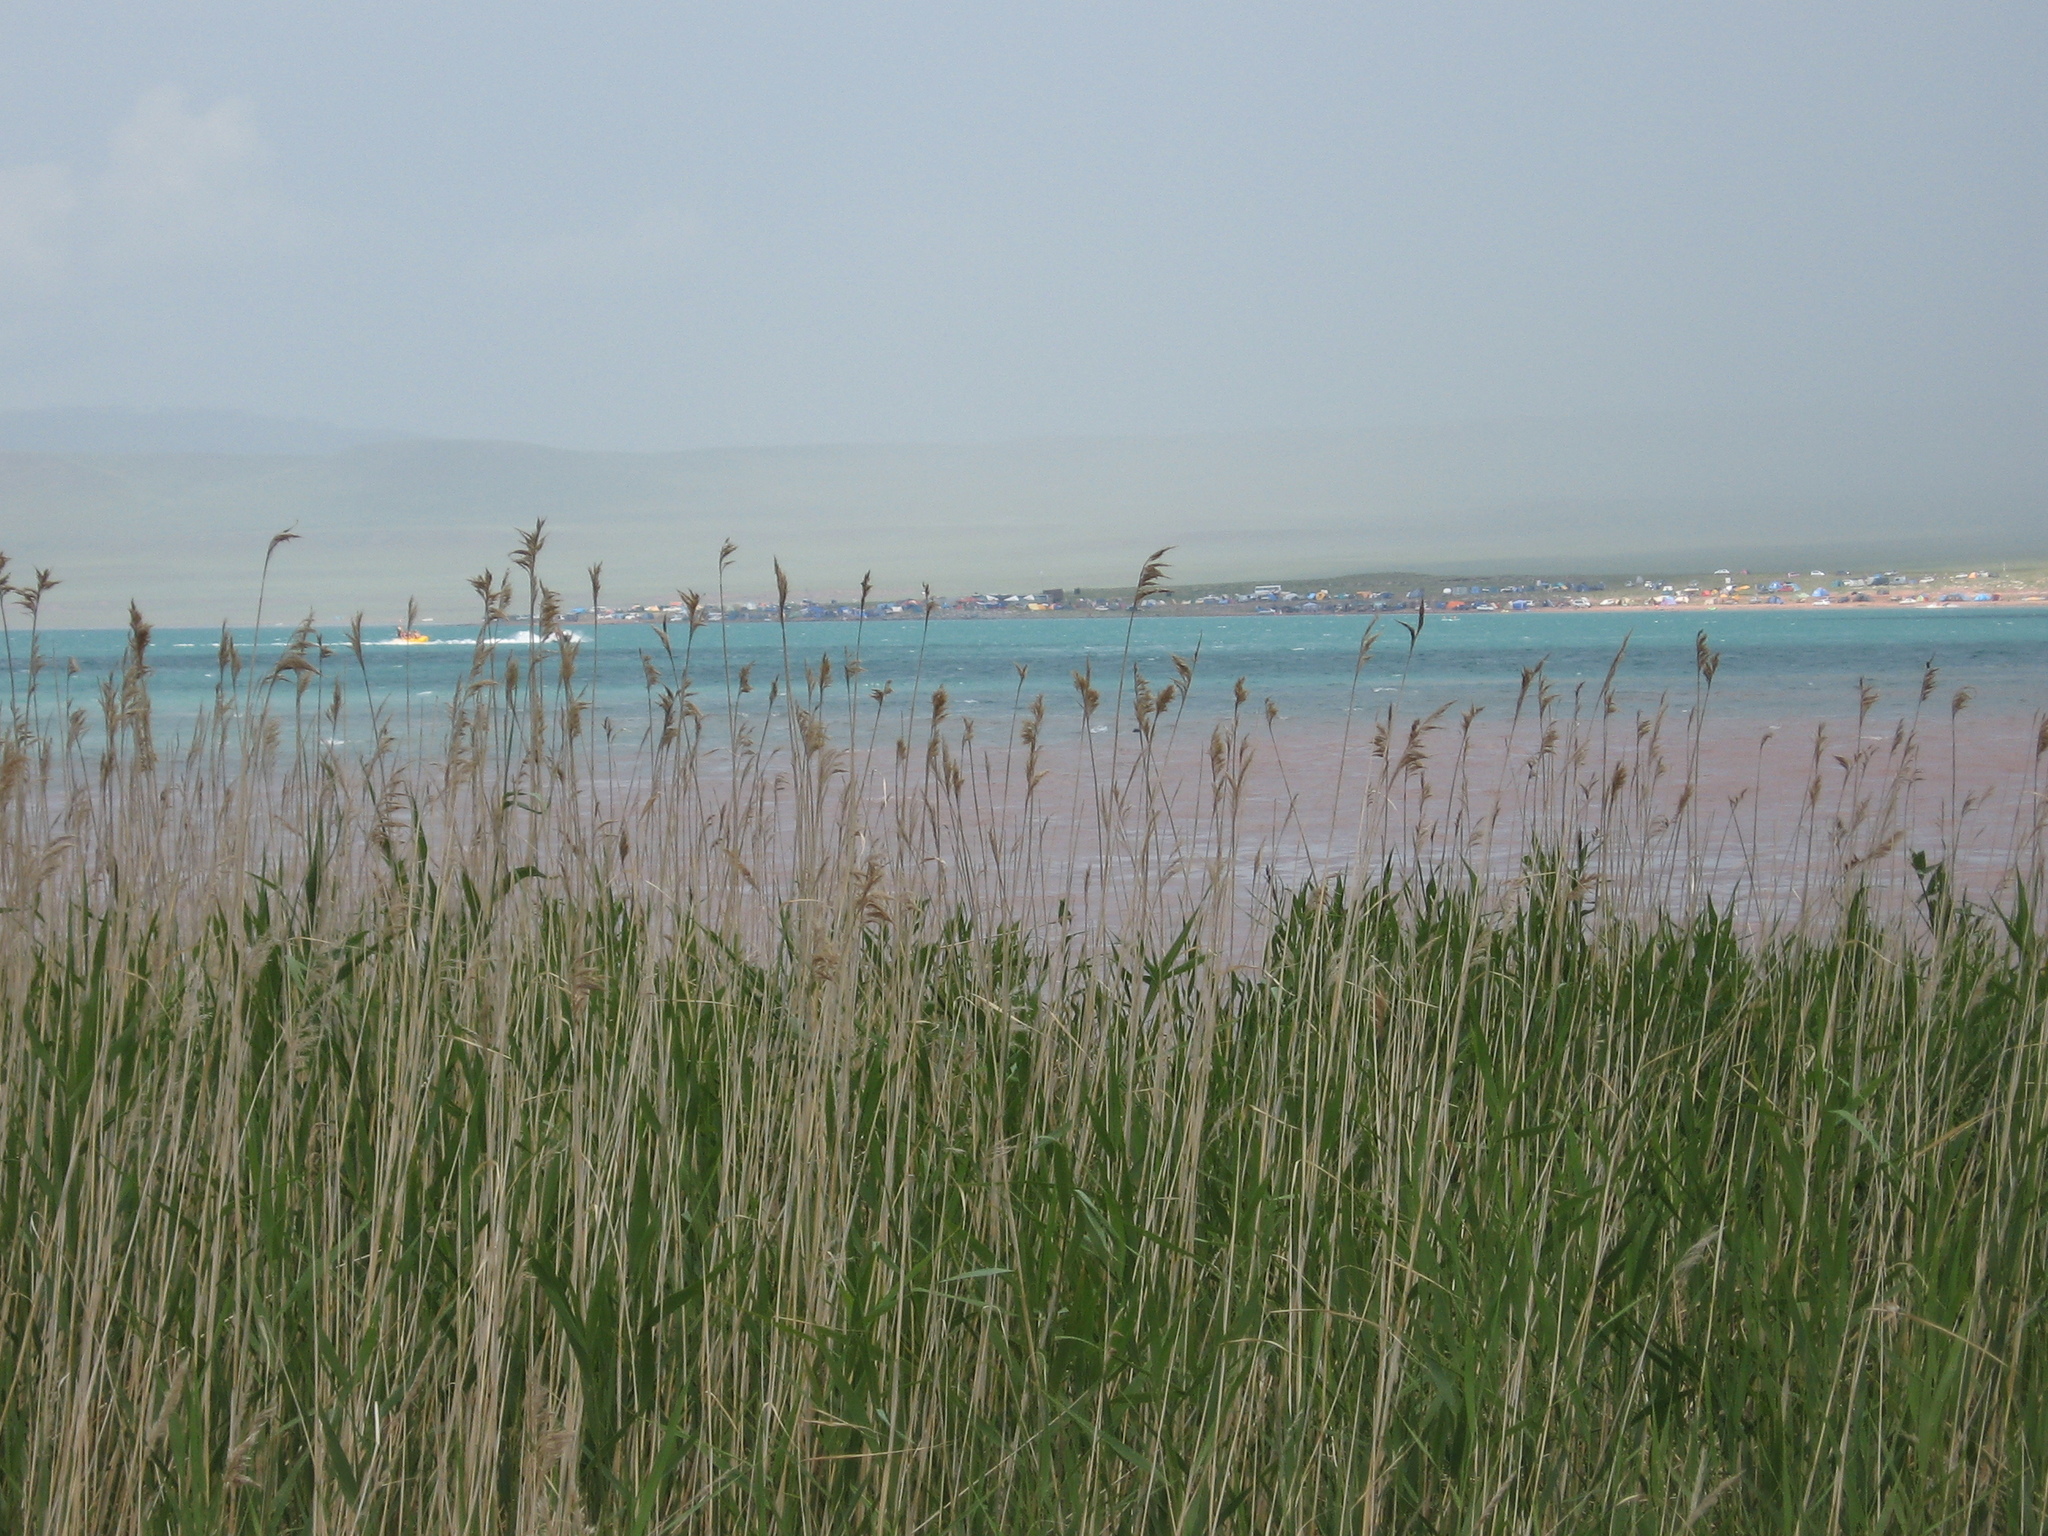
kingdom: Plantae
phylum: Tracheophyta
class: Liliopsida
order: Poales
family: Poaceae
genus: Phragmites
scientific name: Phragmites australis
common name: Common reed
